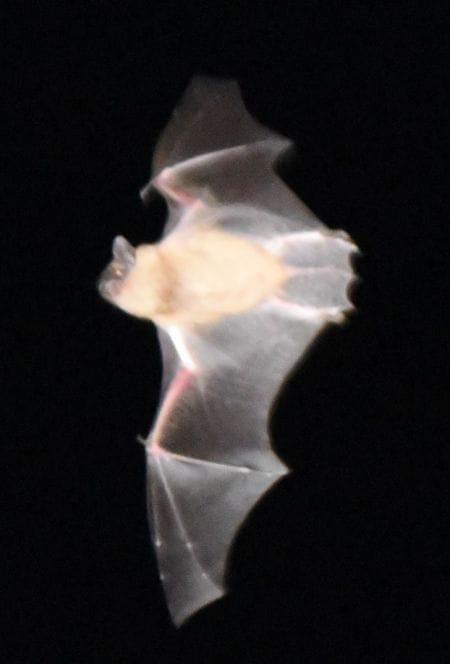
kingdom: Animalia
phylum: Chordata
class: Mammalia
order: Chiroptera
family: Vespertilionidae
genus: Eptesicus
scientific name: Eptesicus serotinus
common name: Serotine
